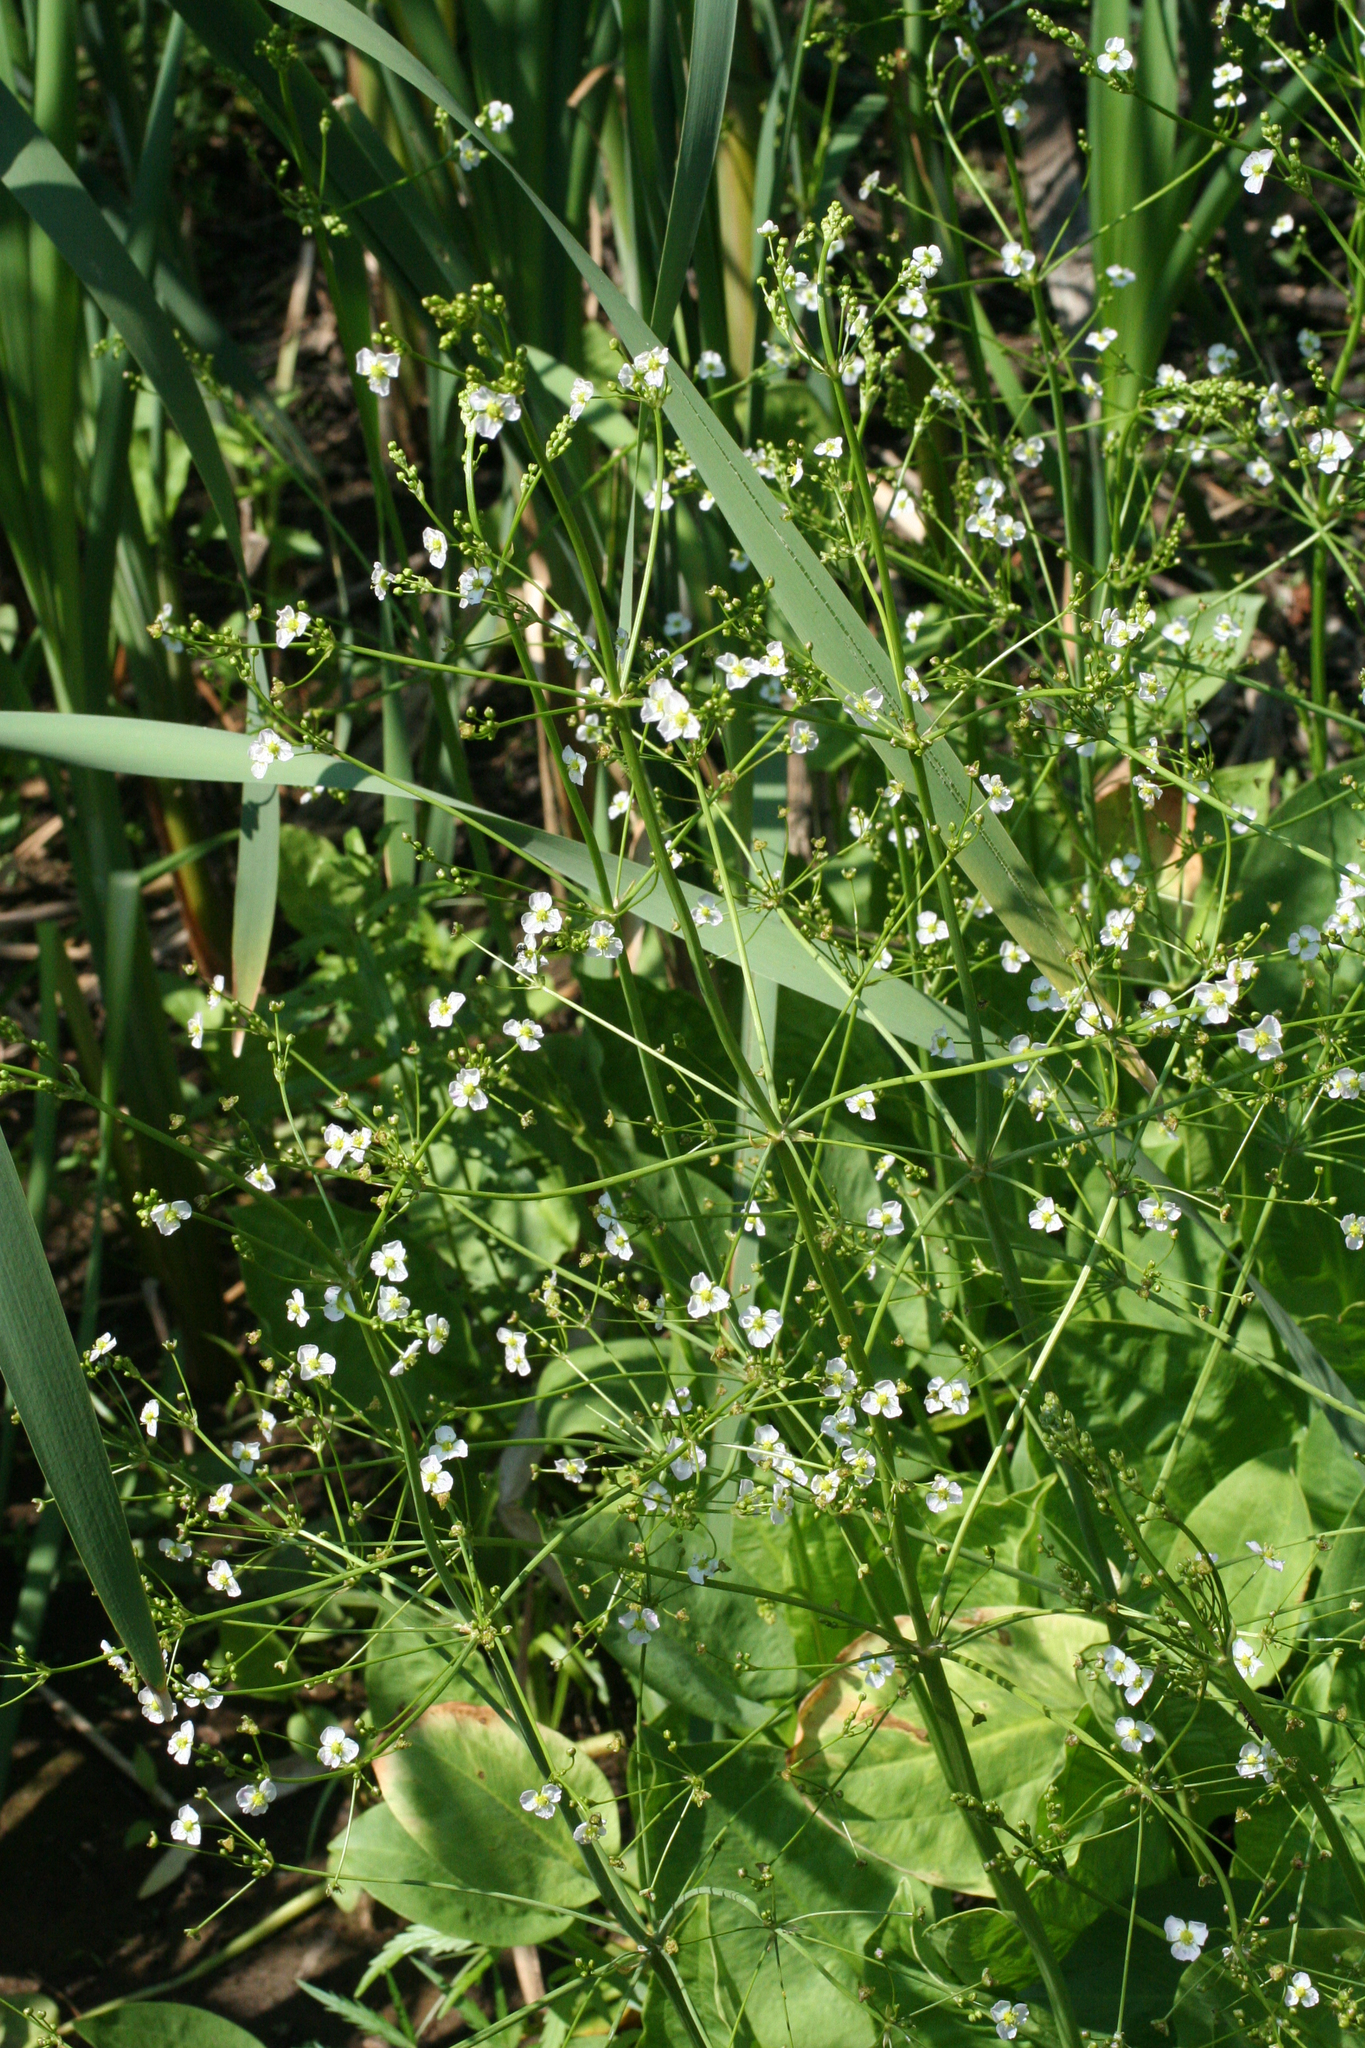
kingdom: Plantae
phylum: Tracheophyta
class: Liliopsida
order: Alismatales
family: Alismataceae
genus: Alisma
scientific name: Alisma plantago-aquatica
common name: Water-plantain
